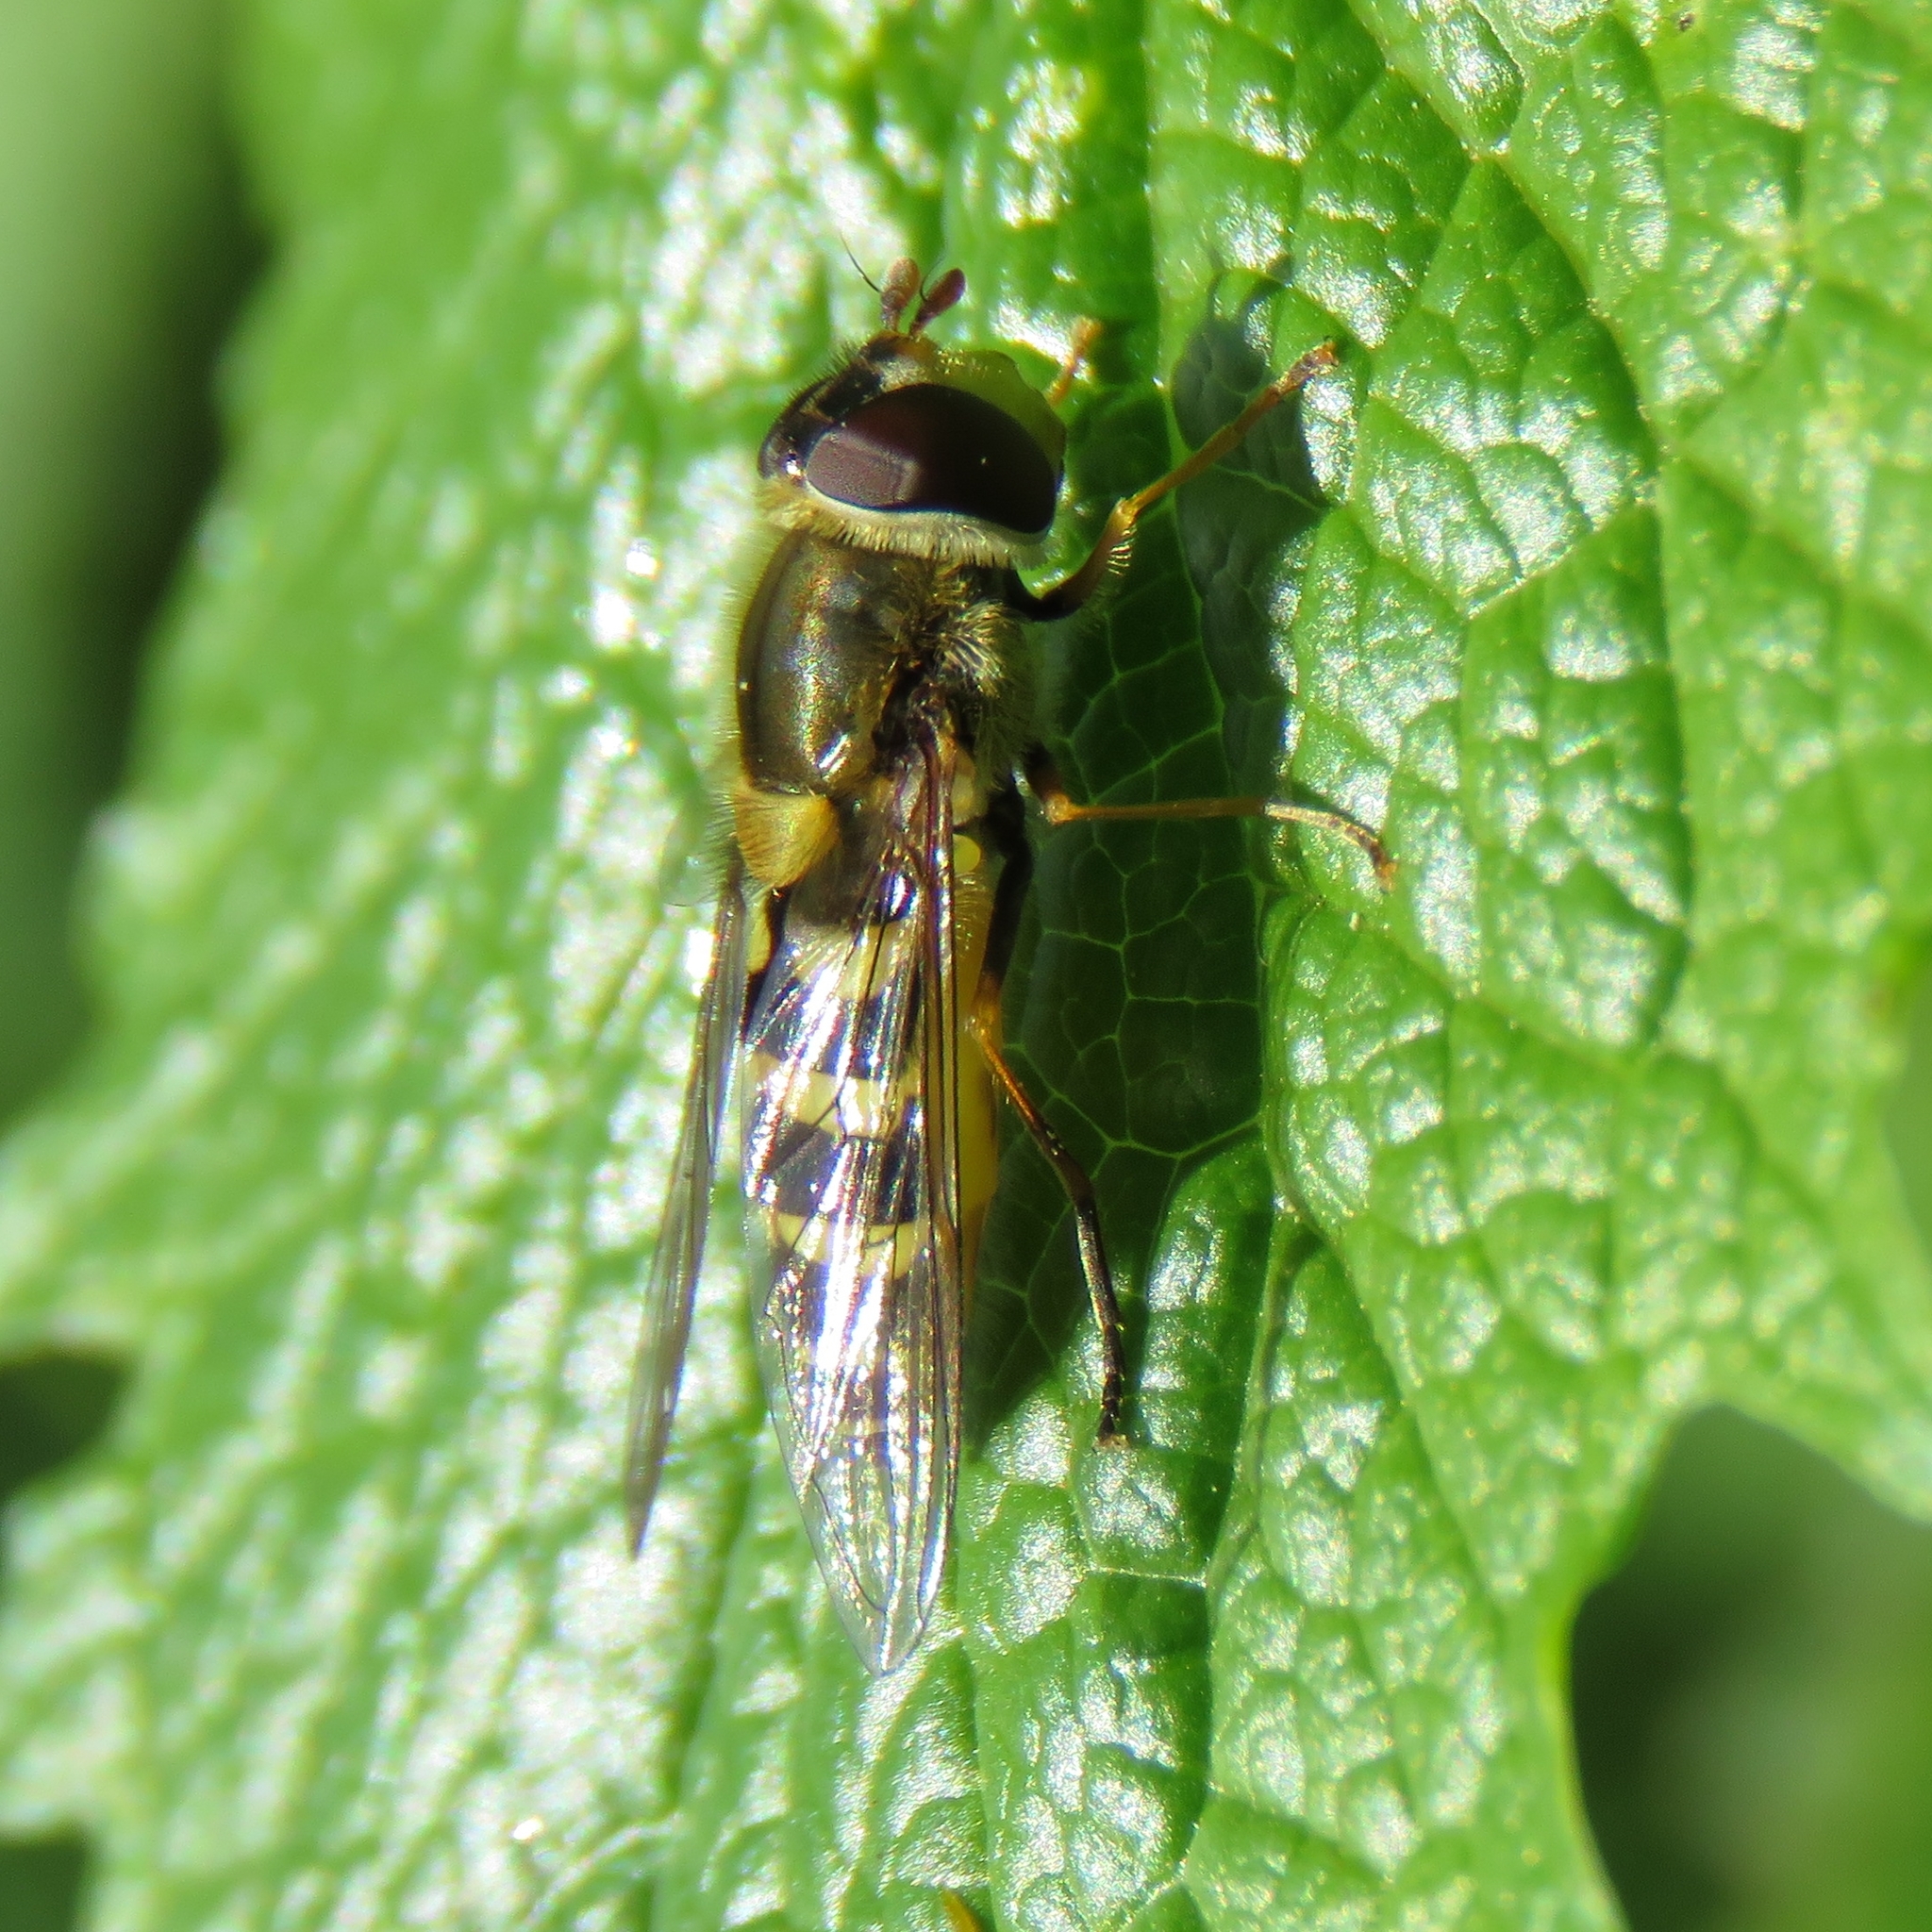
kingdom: Animalia
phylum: Arthropoda
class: Insecta
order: Diptera
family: Syrphidae
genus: Syrphus
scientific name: Syrphus
